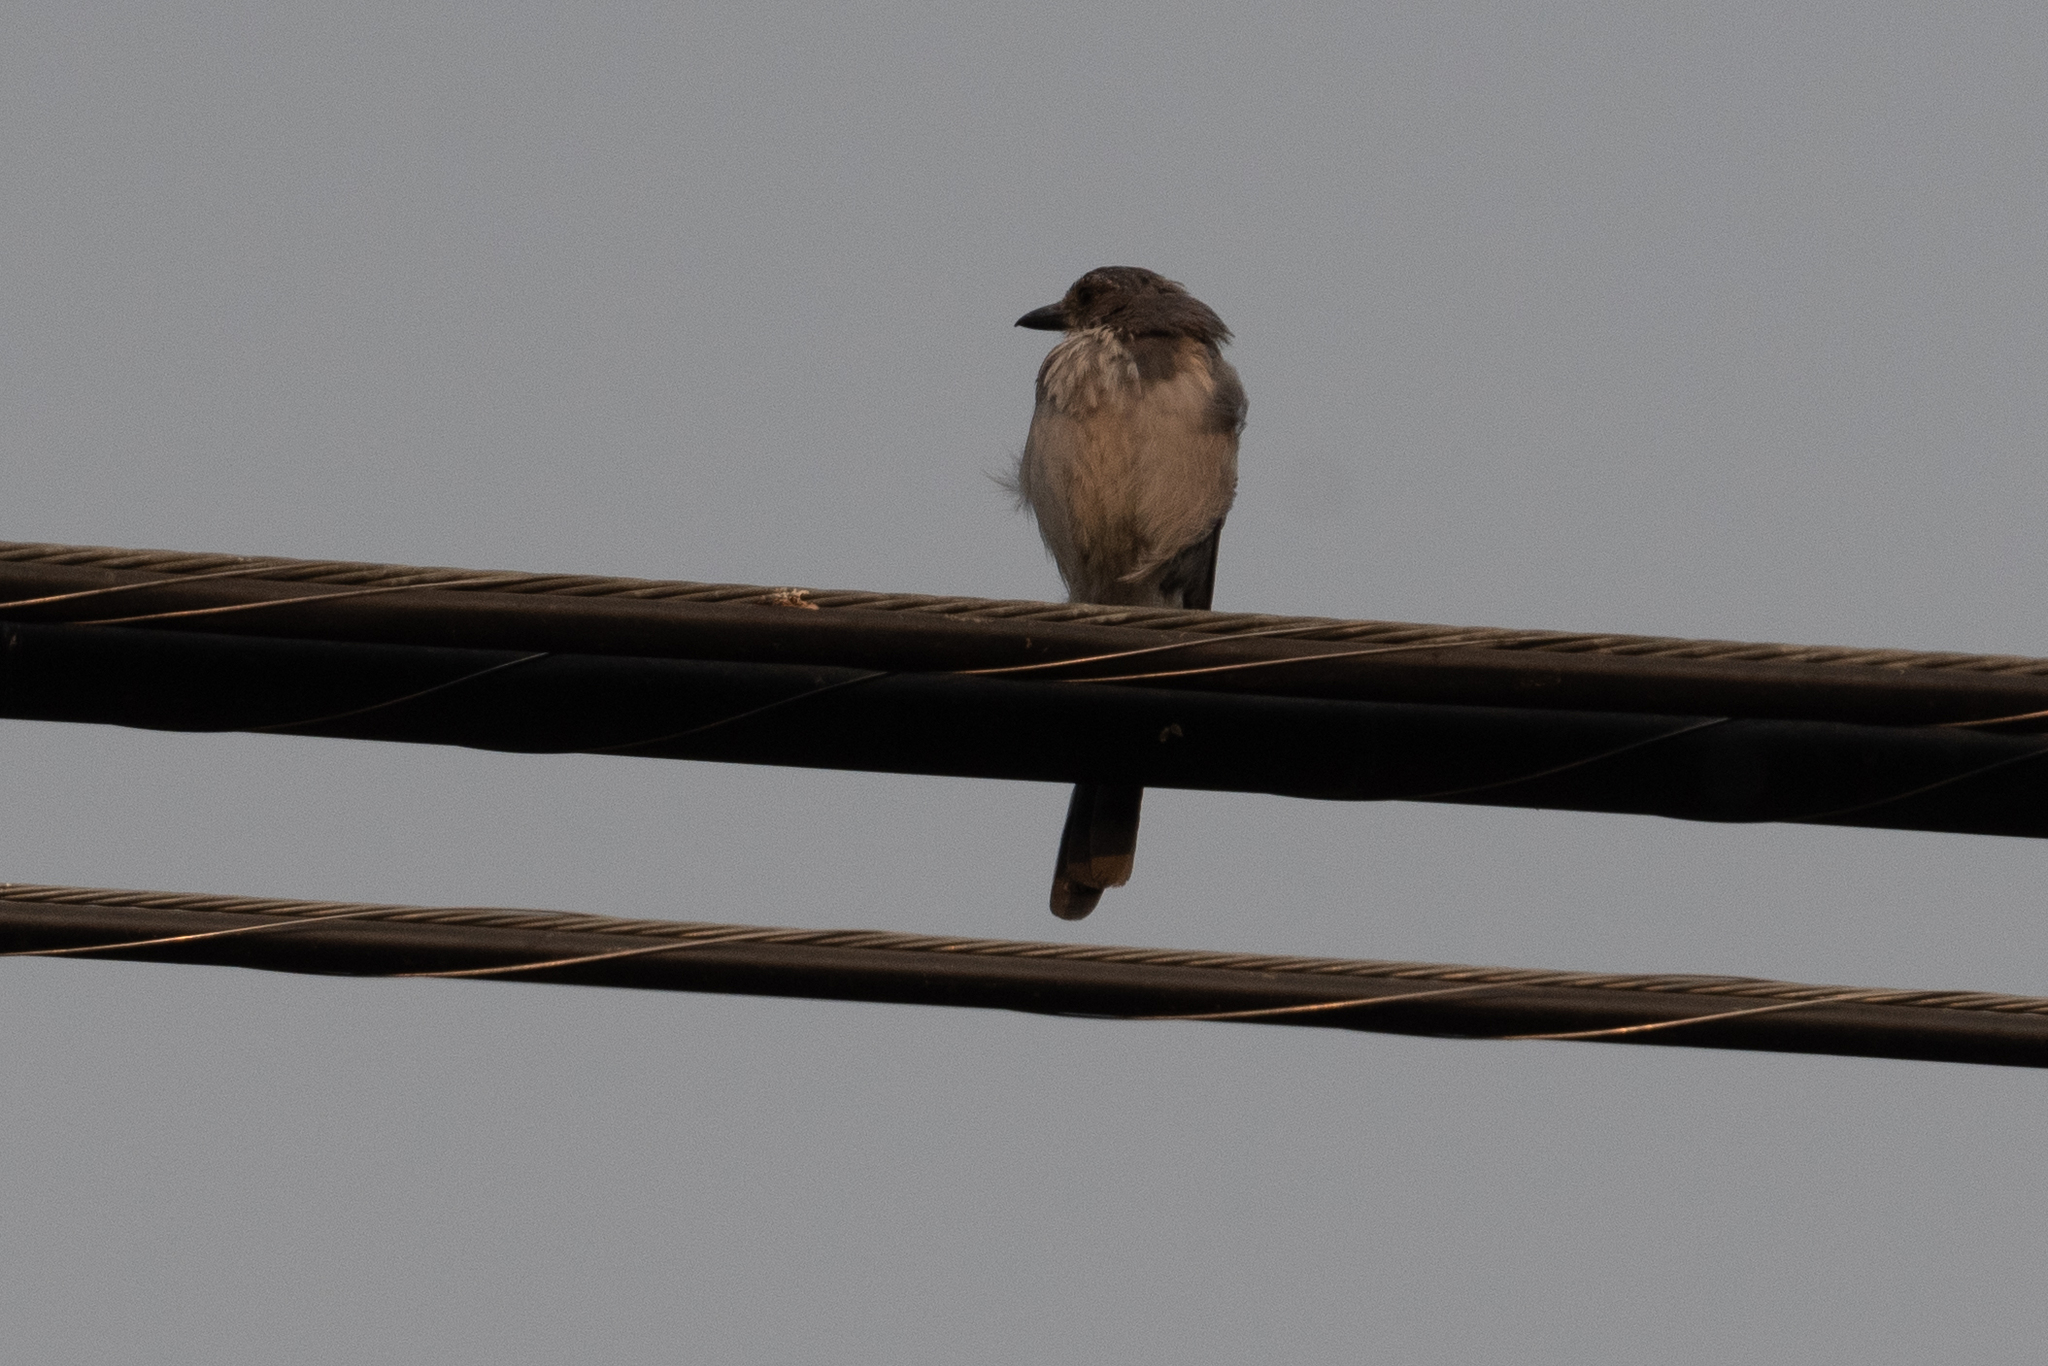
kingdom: Animalia
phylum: Chordata
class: Aves
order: Passeriformes
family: Corvidae
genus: Aphelocoma
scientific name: Aphelocoma californica
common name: California scrub-jay
